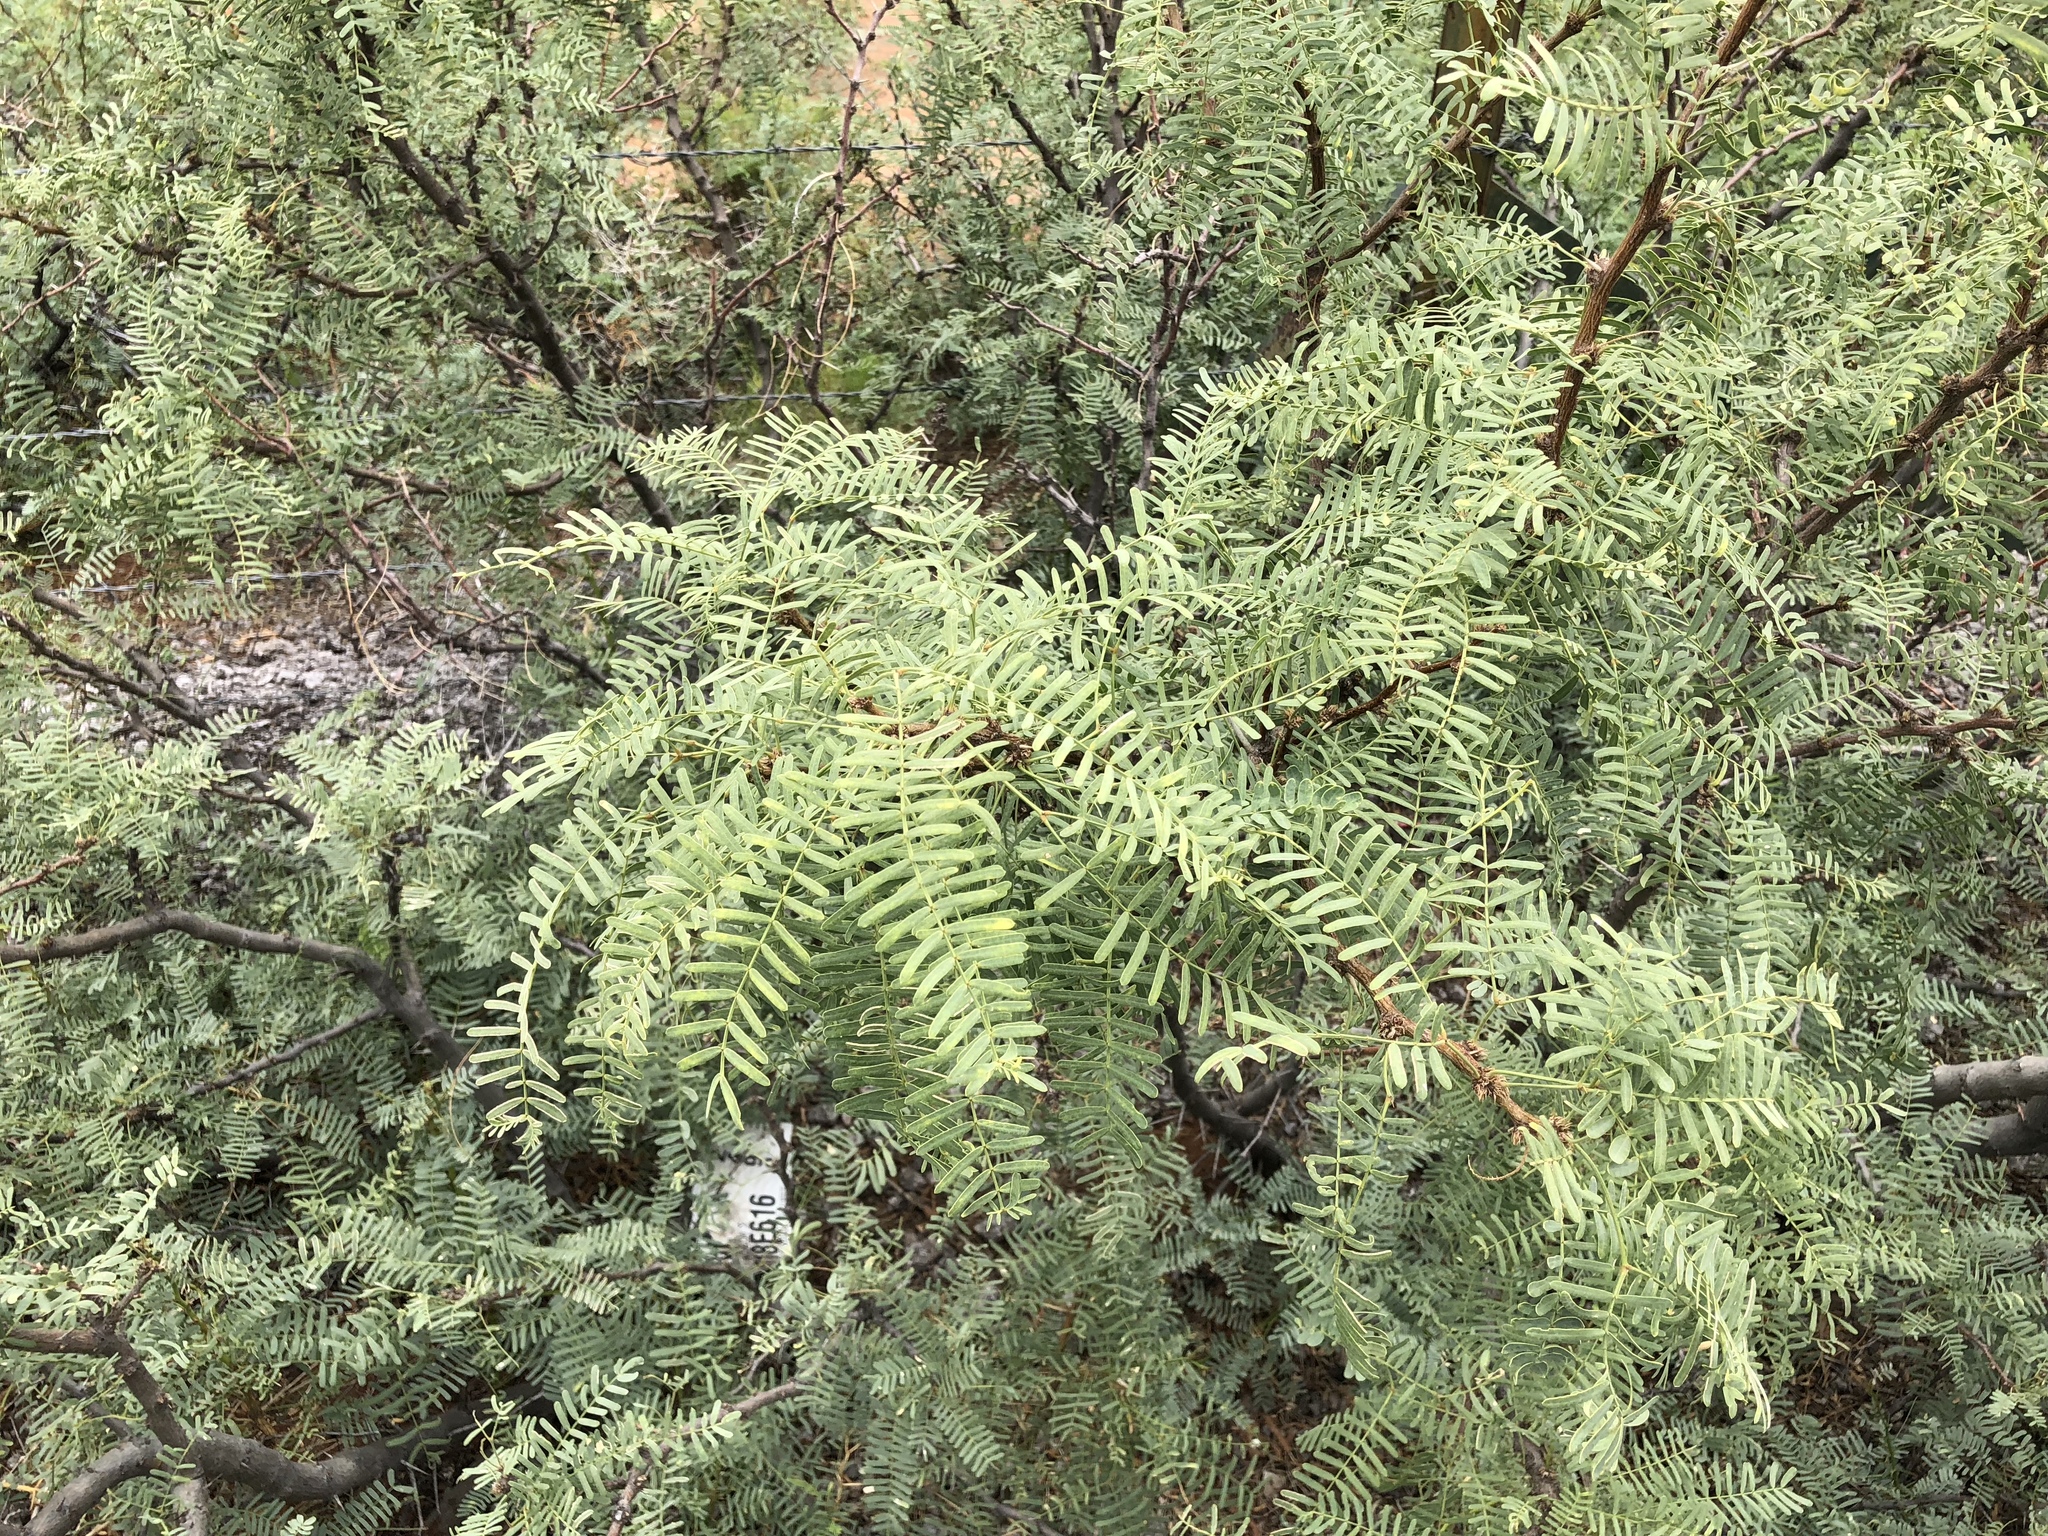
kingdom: Plantae
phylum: Tracheophyta
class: Magnoliopsida
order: Fabales
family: Fabaceae
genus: Prosopis
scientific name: Prosopis glandulosa
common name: Honey mesquite
